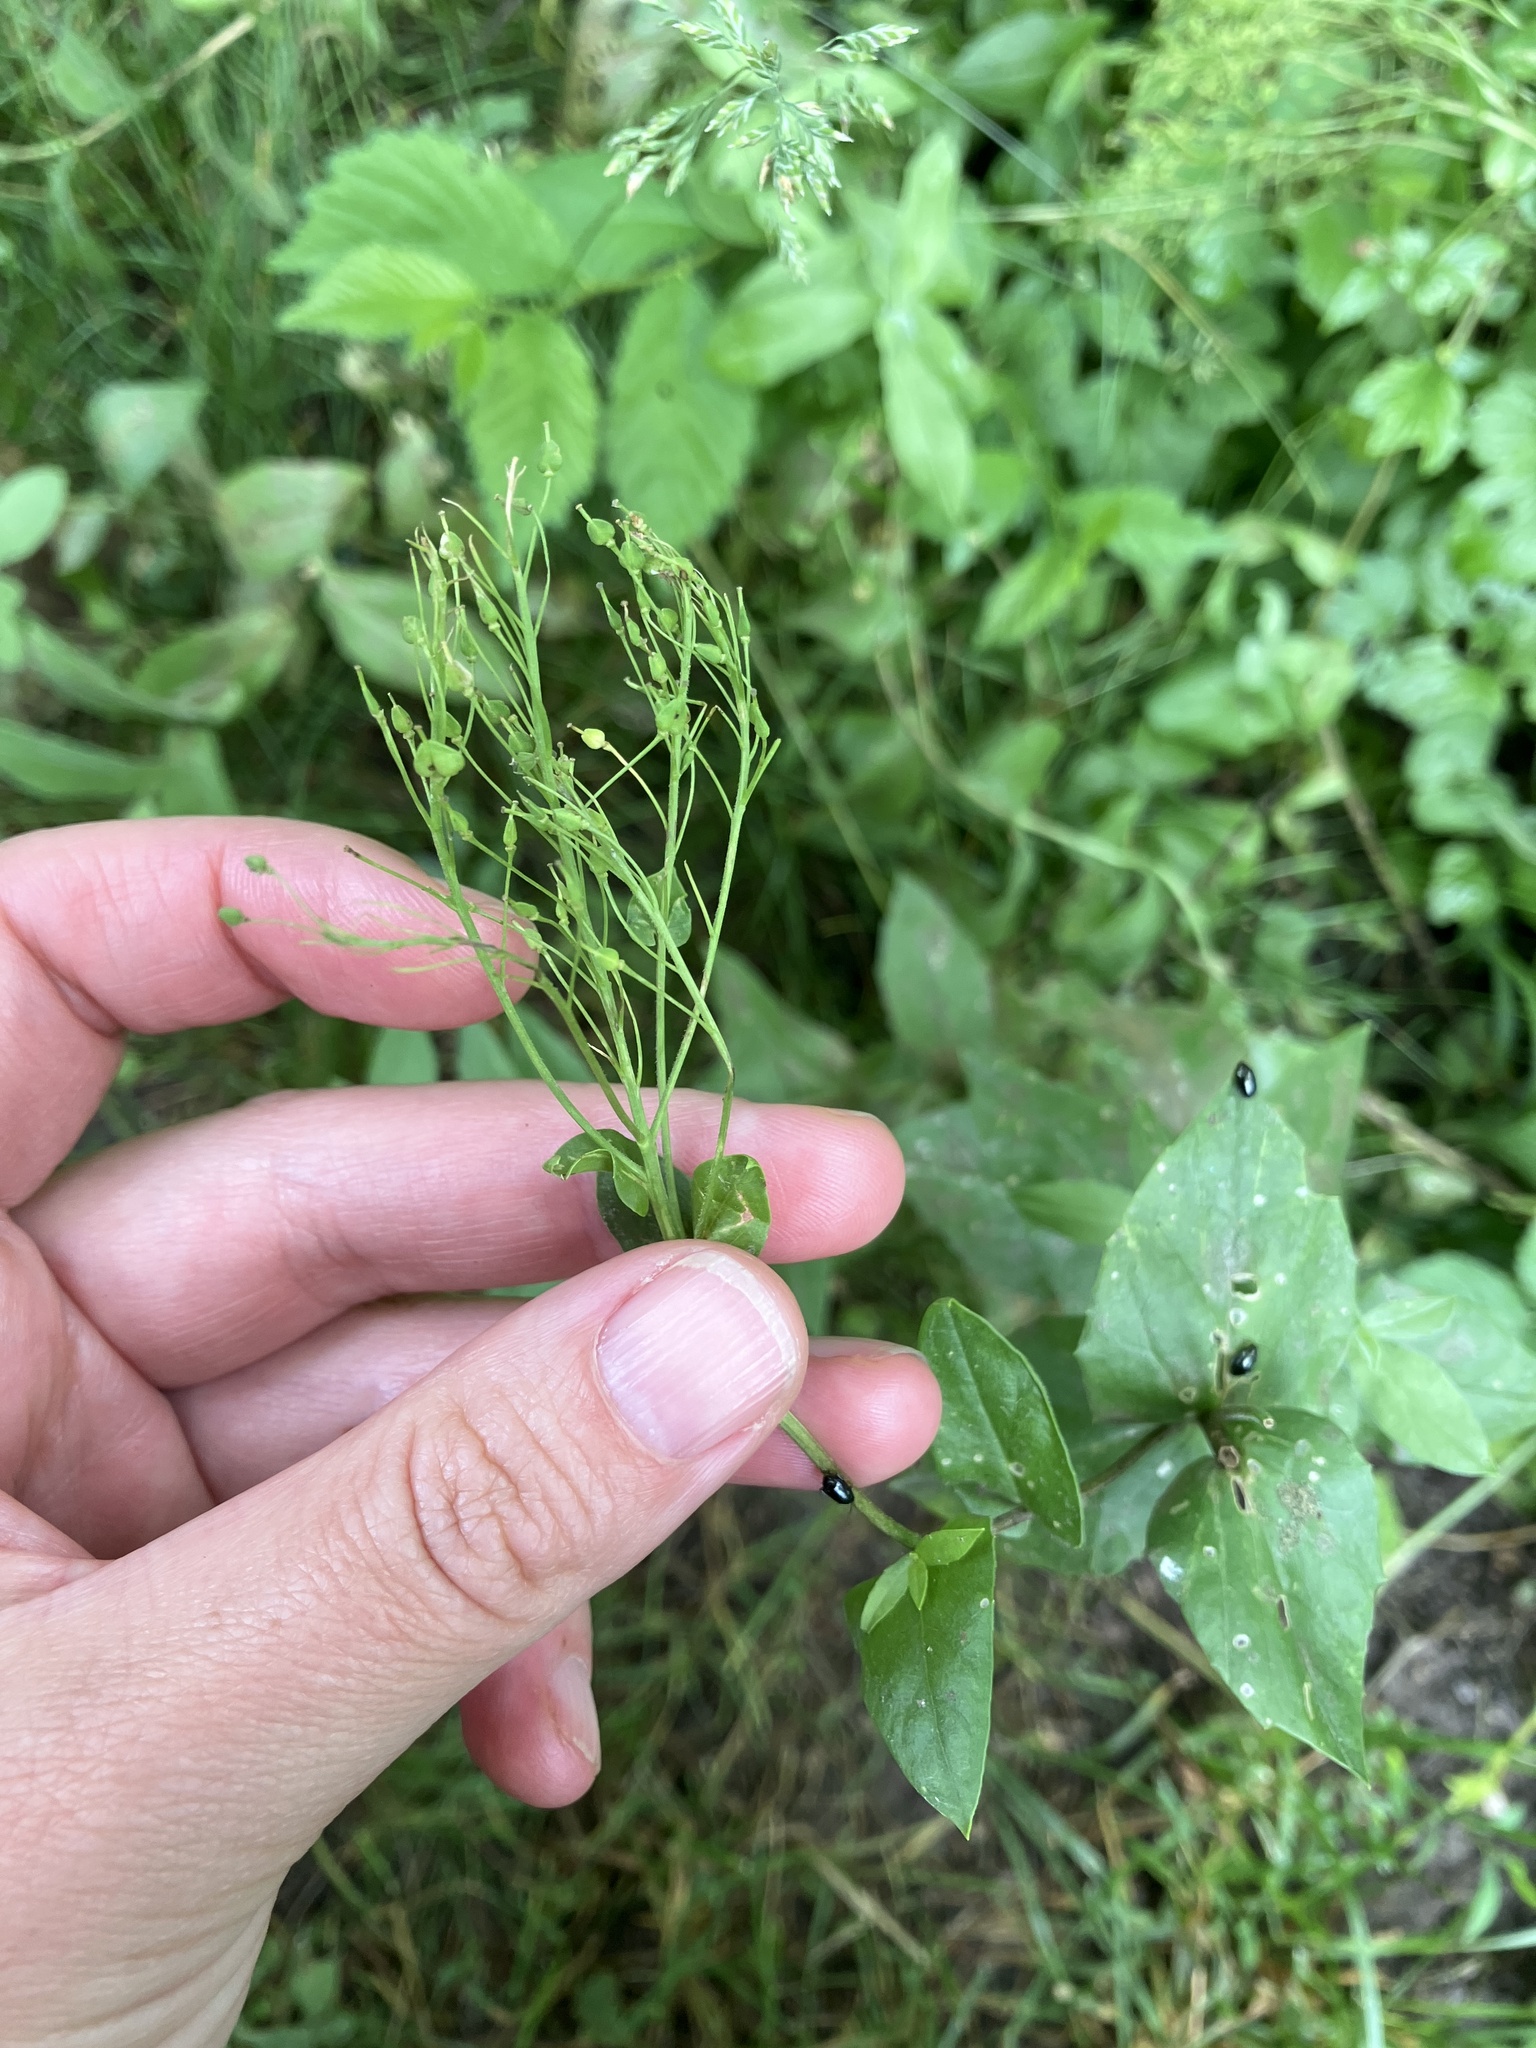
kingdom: Plantae
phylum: Tracheophyta
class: Magnoliopsida
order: Brassicales
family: Brassicaceae
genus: Lepidium
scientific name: Lepidium draba
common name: Hoary cress
